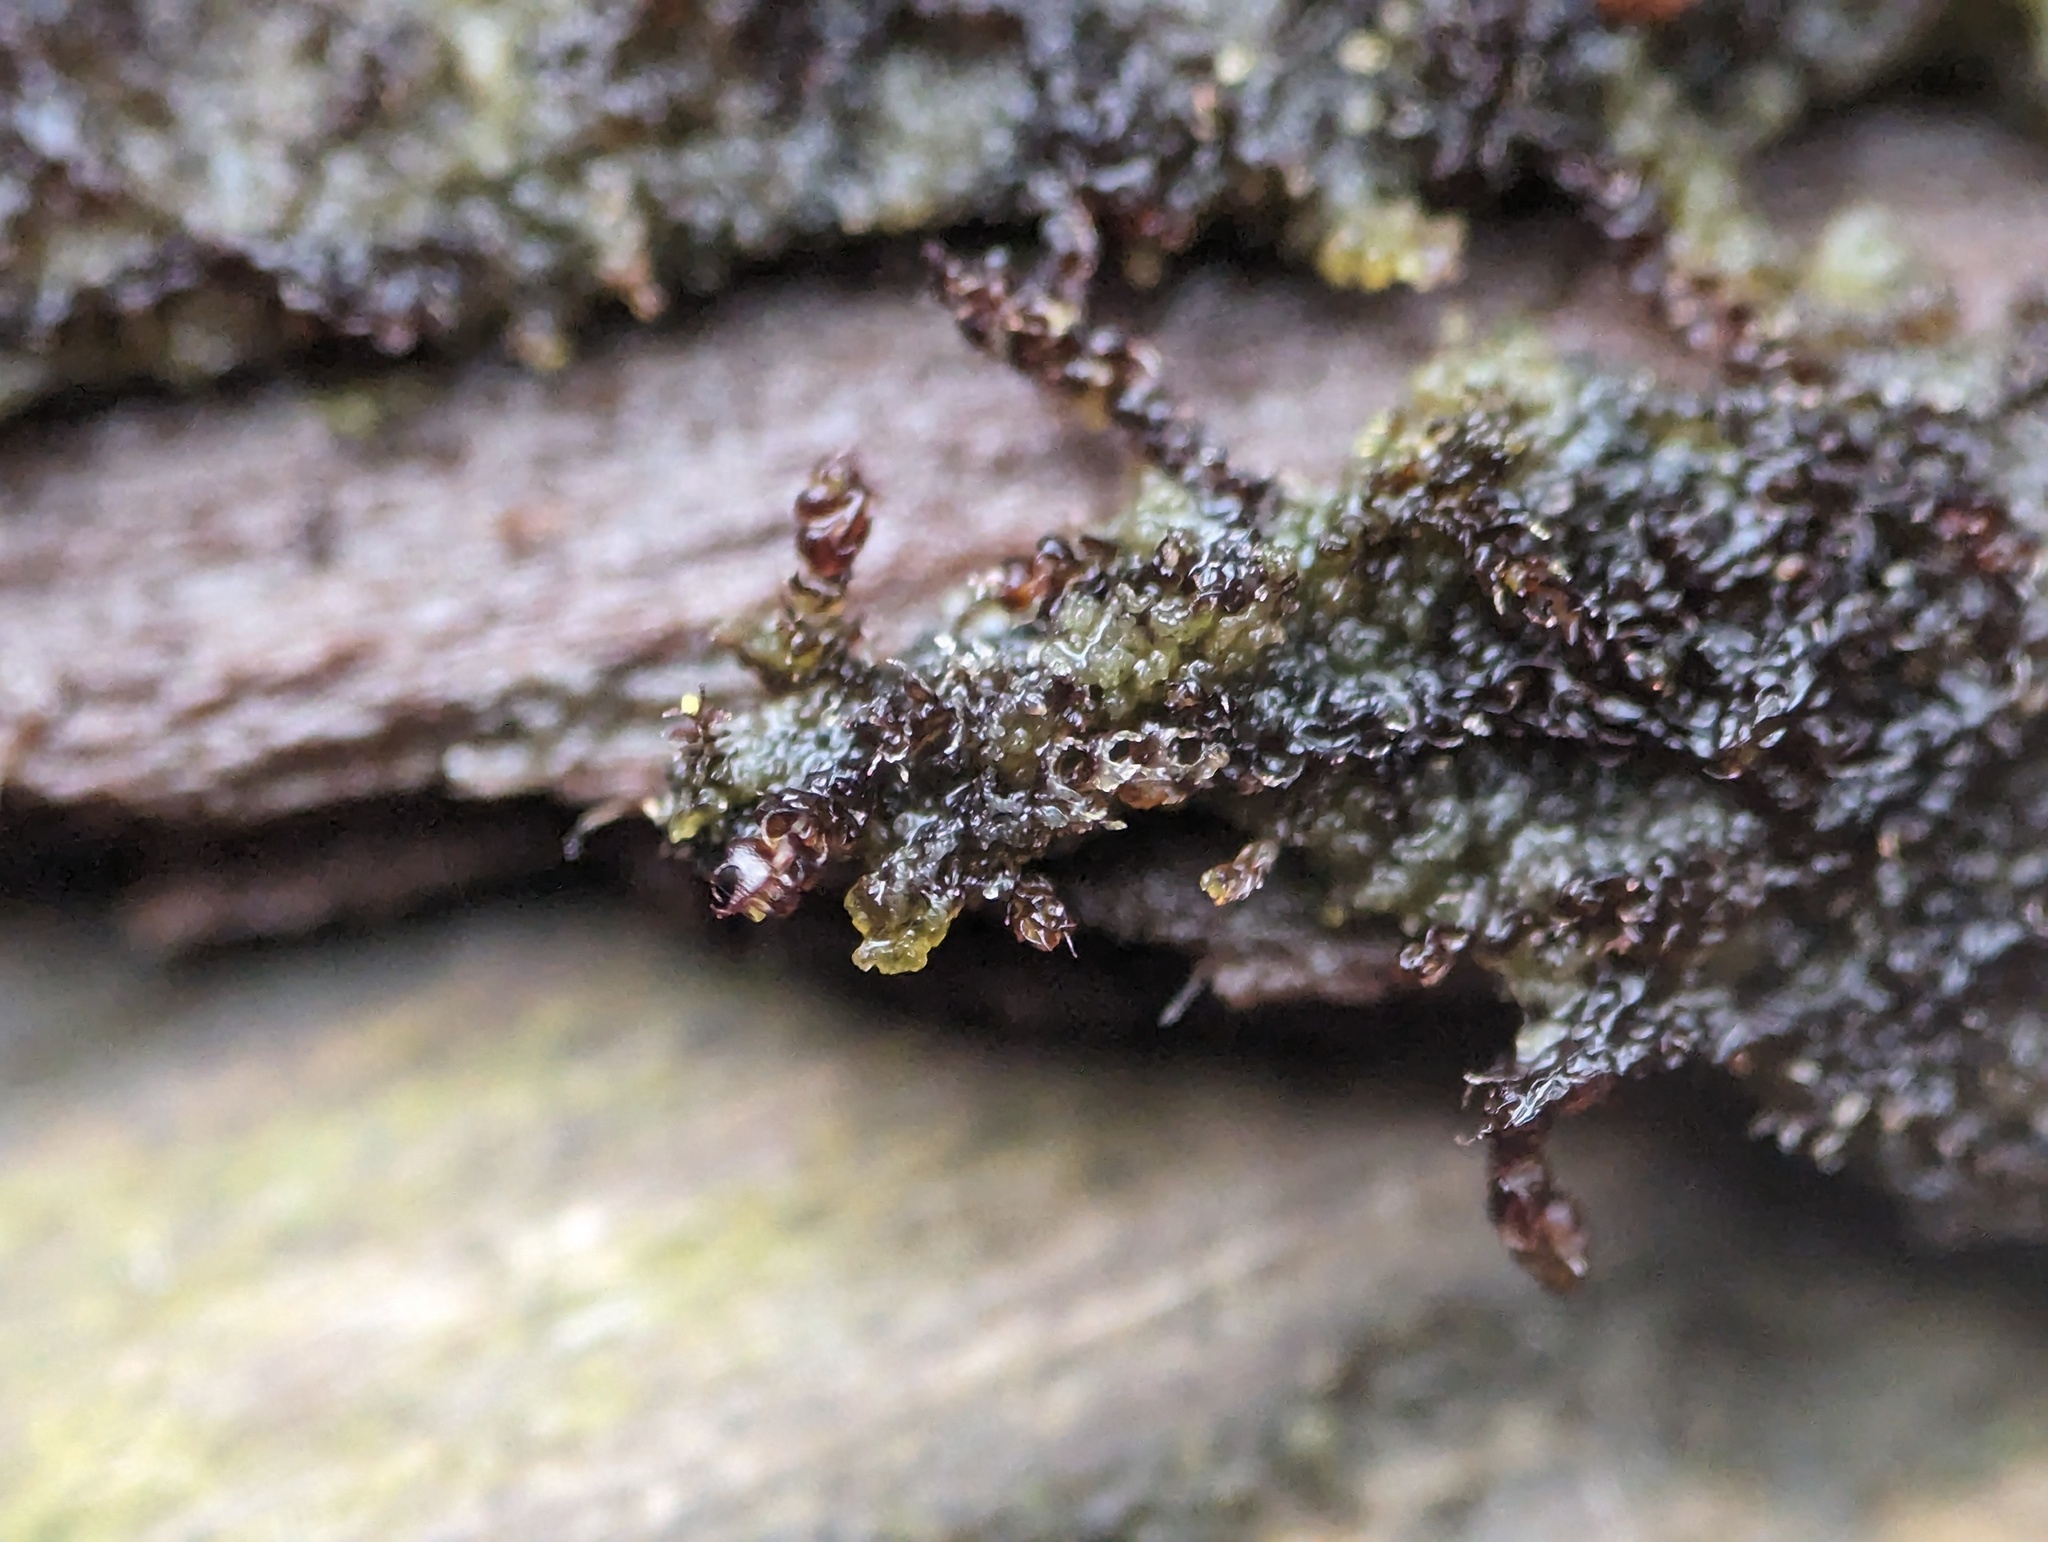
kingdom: Plantae
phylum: Marchantiophyta
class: Jungermanniopsida
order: Jungermanniales
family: Cephaloziaceae
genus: Nowellia
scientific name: Nowellia curvifolia
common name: Wood rustwort
